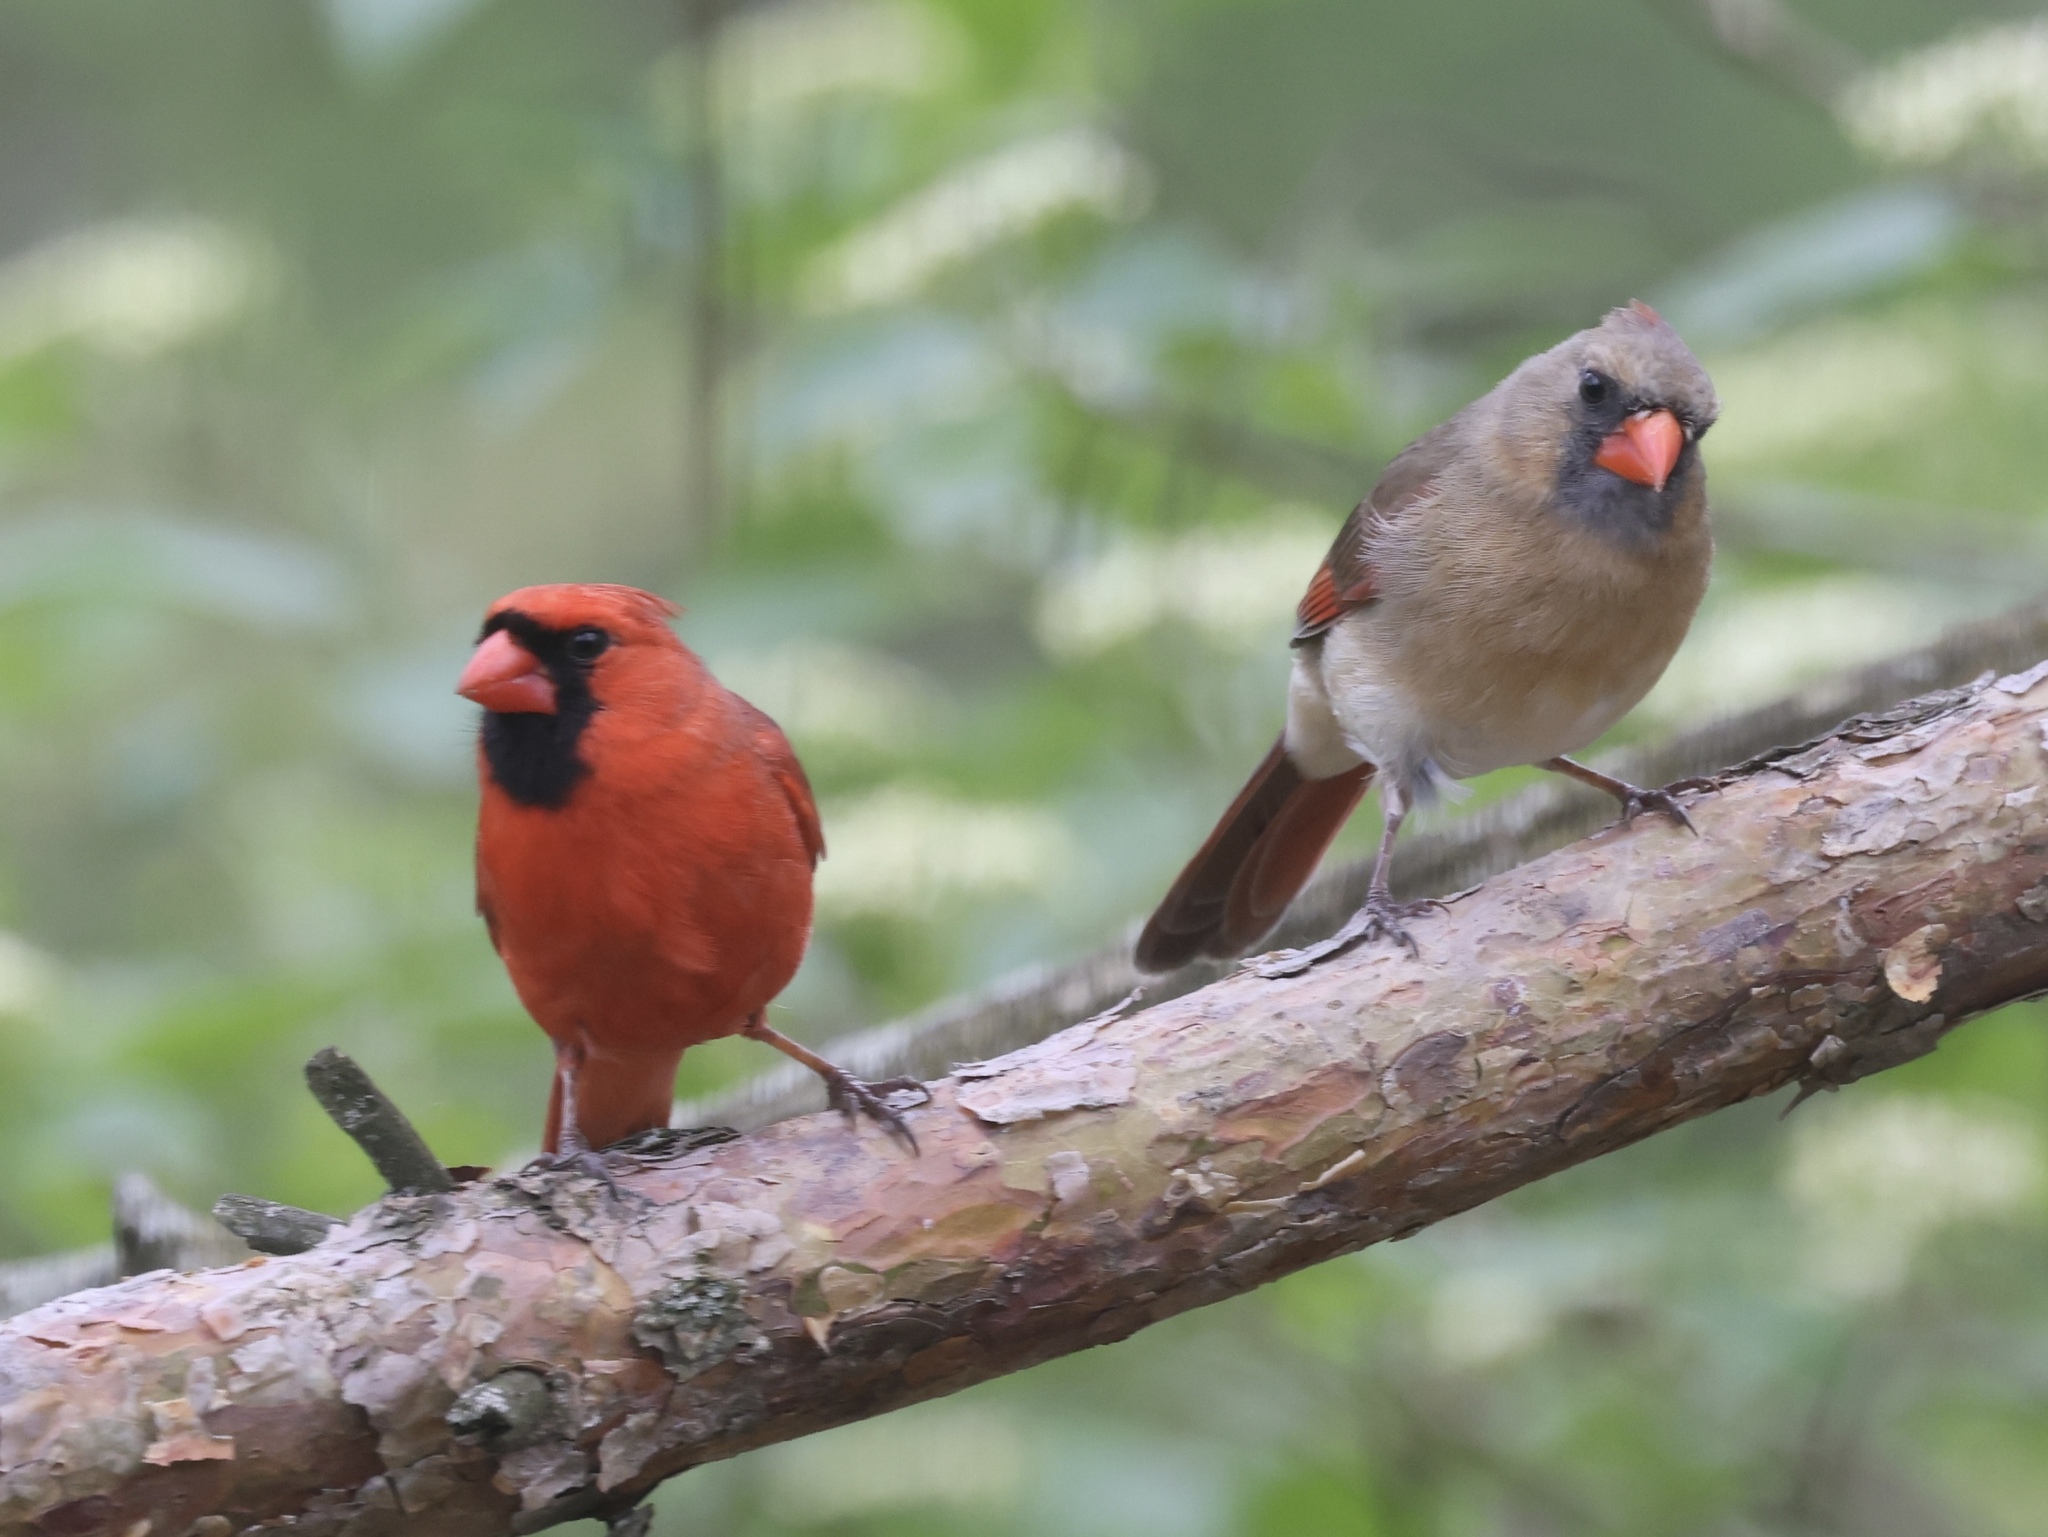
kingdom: Animalia
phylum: Chordata
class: Aves
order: Passeriformes
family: Cardinalidae
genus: Cardinalis
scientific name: Cardinalis cardinalis
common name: Northern cardinal
